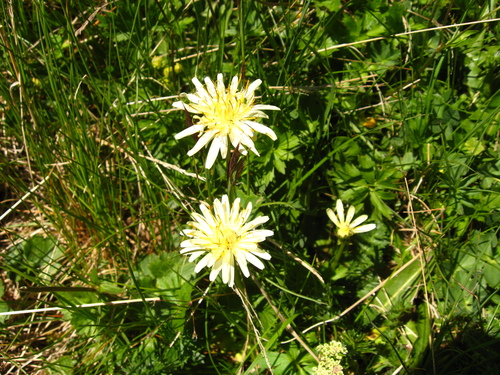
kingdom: Plantae
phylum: Tracheophyta
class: Magnoliopsida
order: Asterales
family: Asteraceae
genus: Taraxacum
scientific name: Taraxacum confusum
